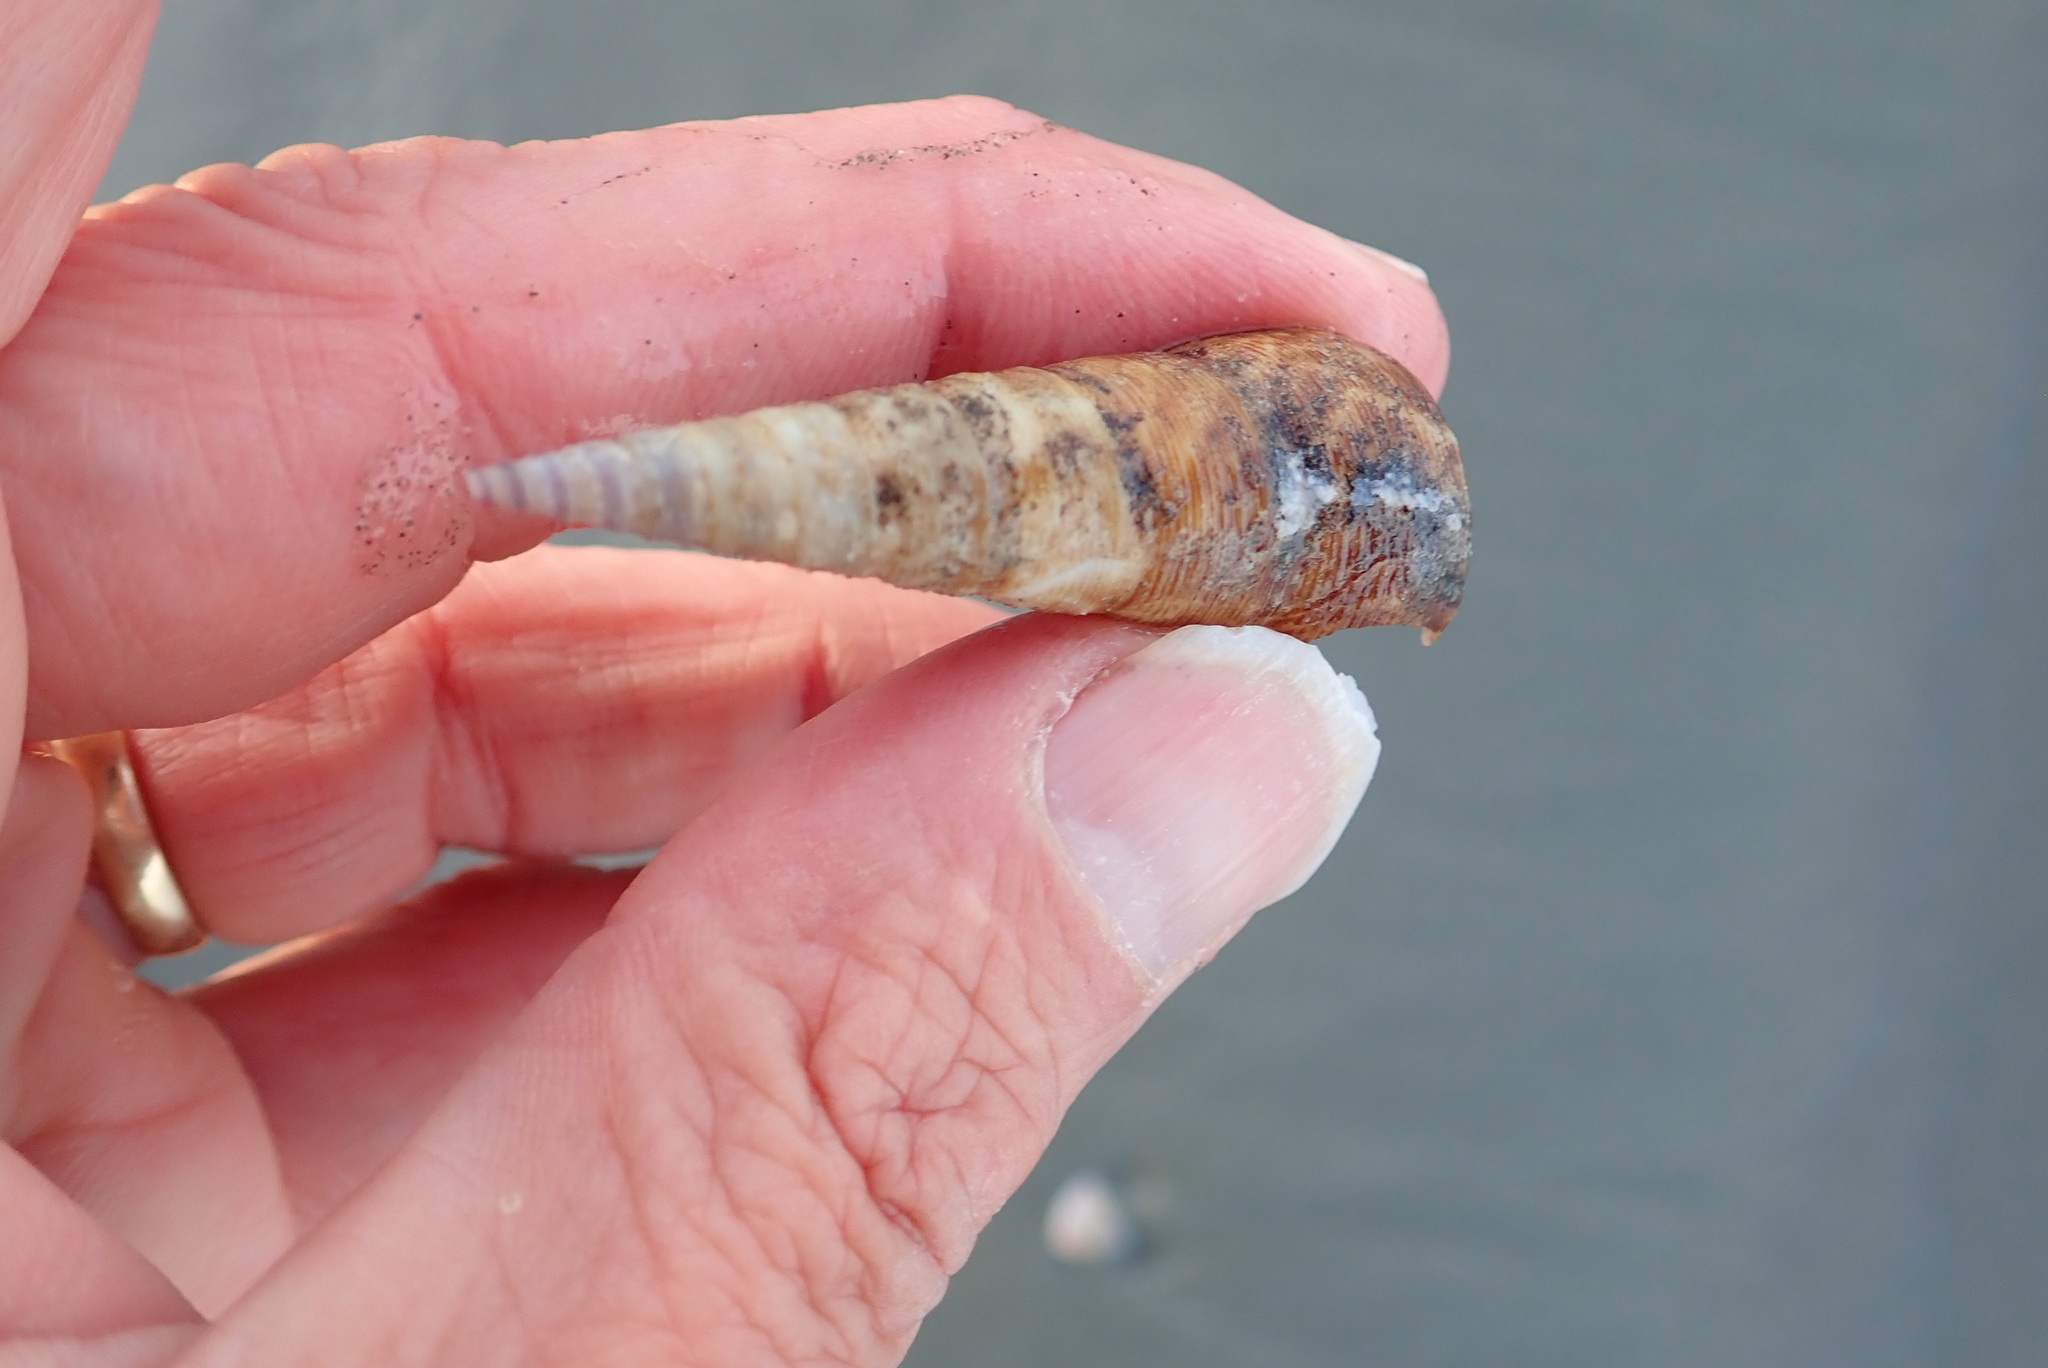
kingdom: Animalia
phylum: Mollusca
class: Gastropoda
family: Turritellidae
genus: Maoricolpus
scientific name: Maoricolpus roseus
